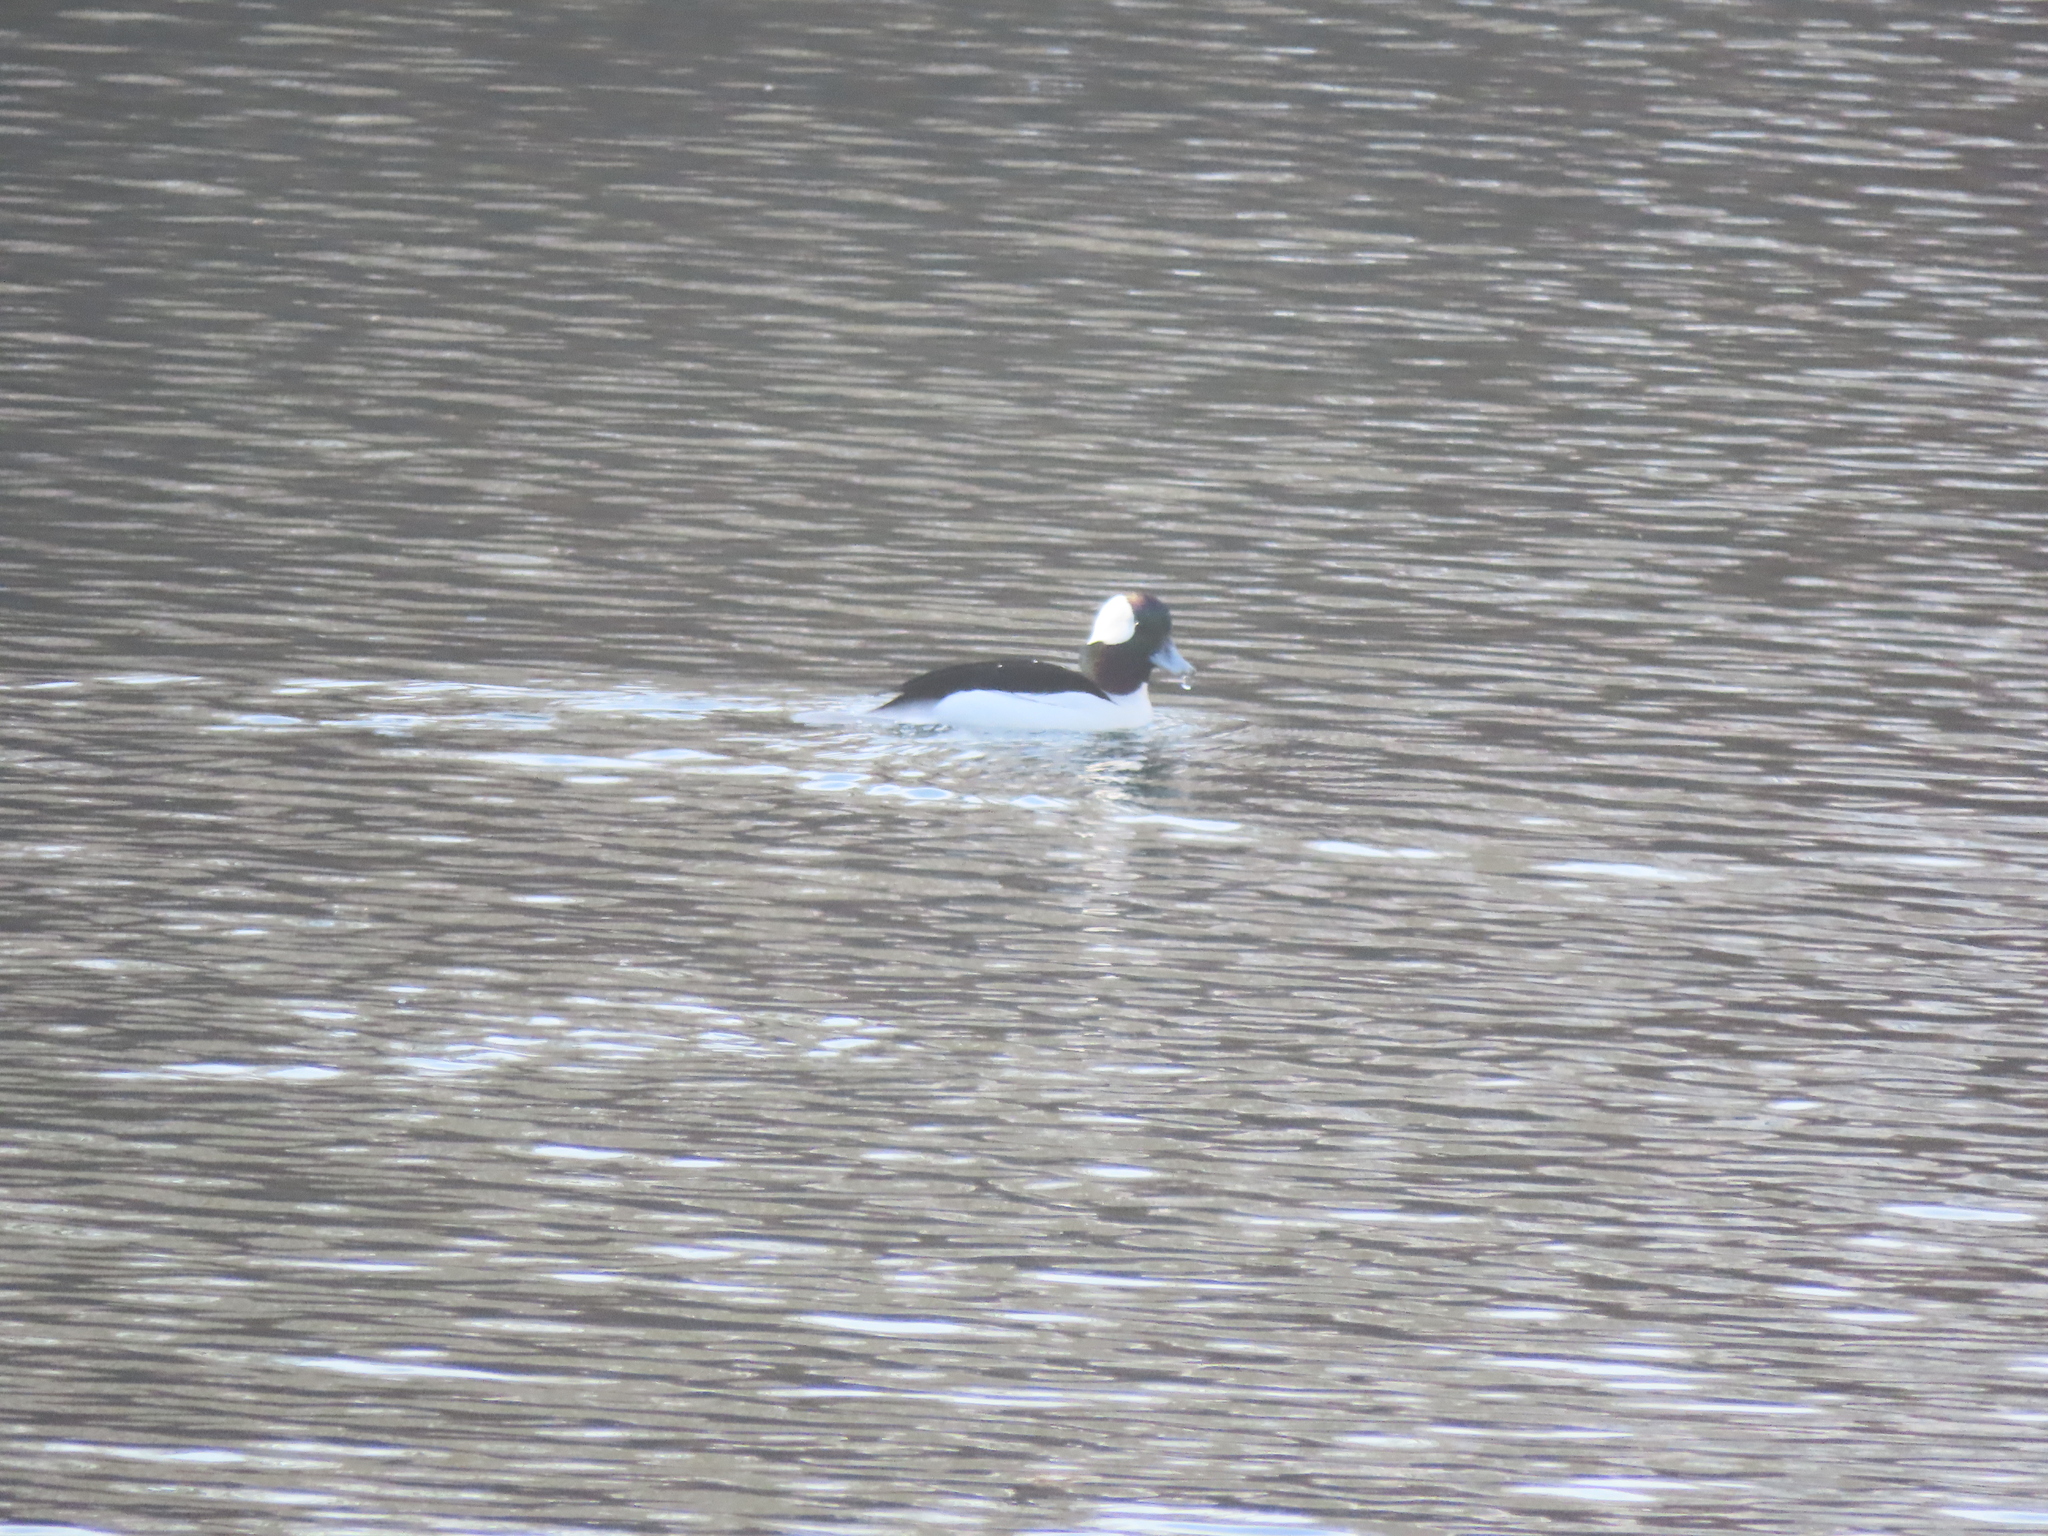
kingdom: Animalia
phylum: Chordata
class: Aves
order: Anseriformes
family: Anatidae
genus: Bucephala
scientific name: Bucephala albeola
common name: Bufflehead
